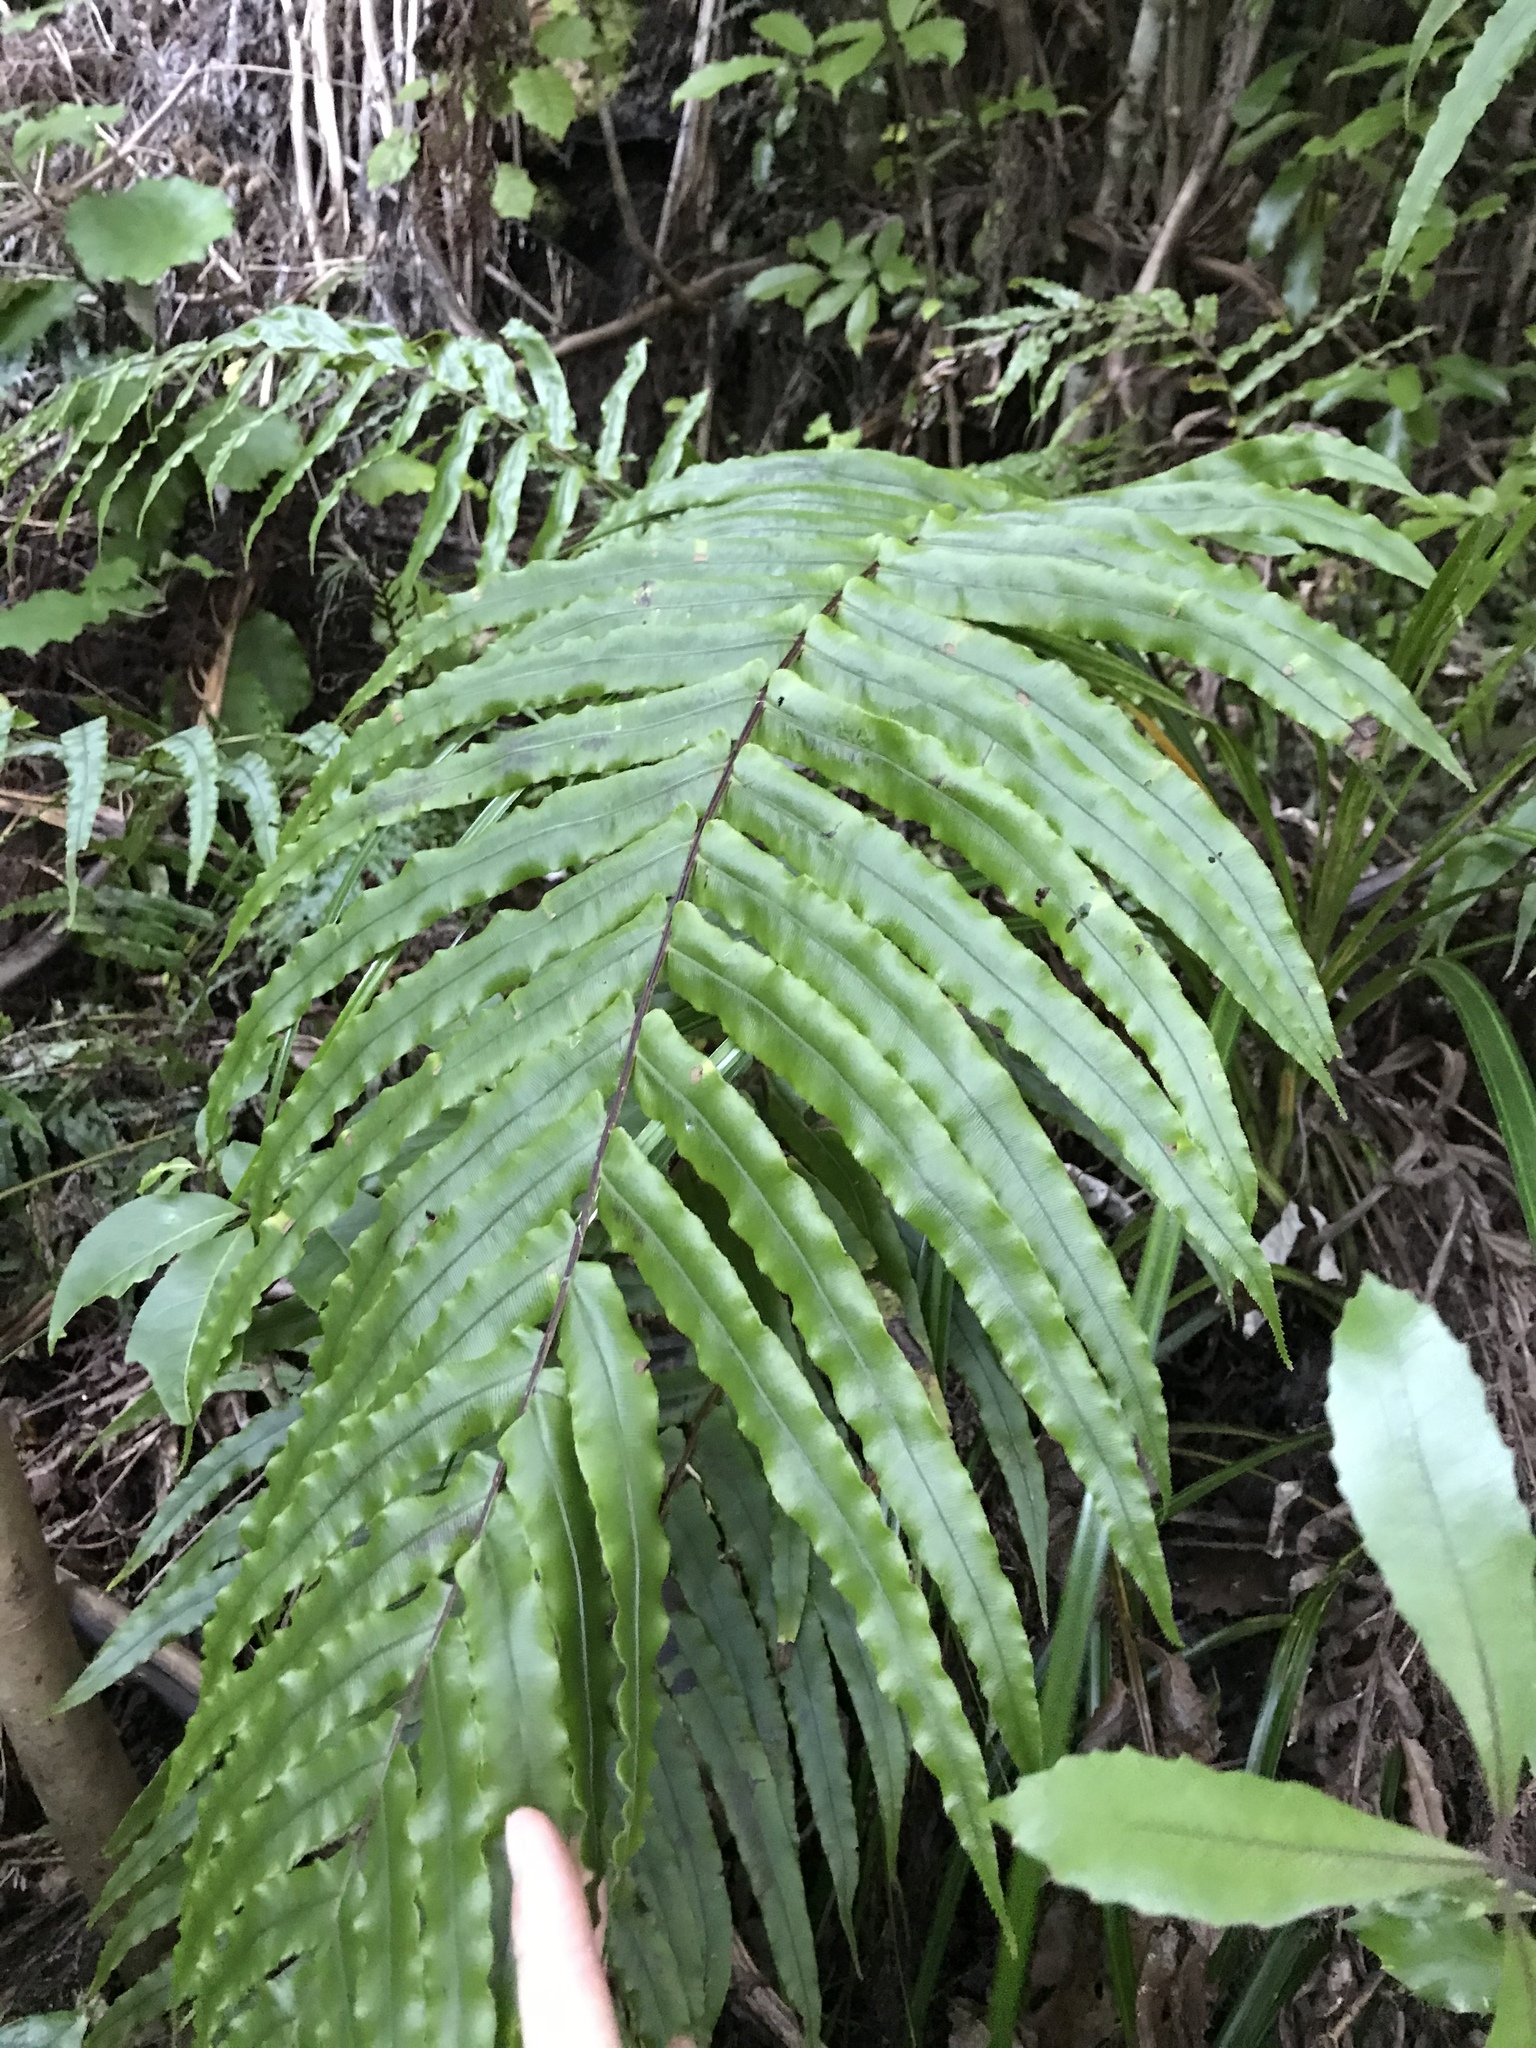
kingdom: Plantae
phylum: Tracheophyta
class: Polypodiopsida
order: Polypodiales
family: Blechnaceae
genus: Parablechnum
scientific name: Parablechnum novae-zelandiae
